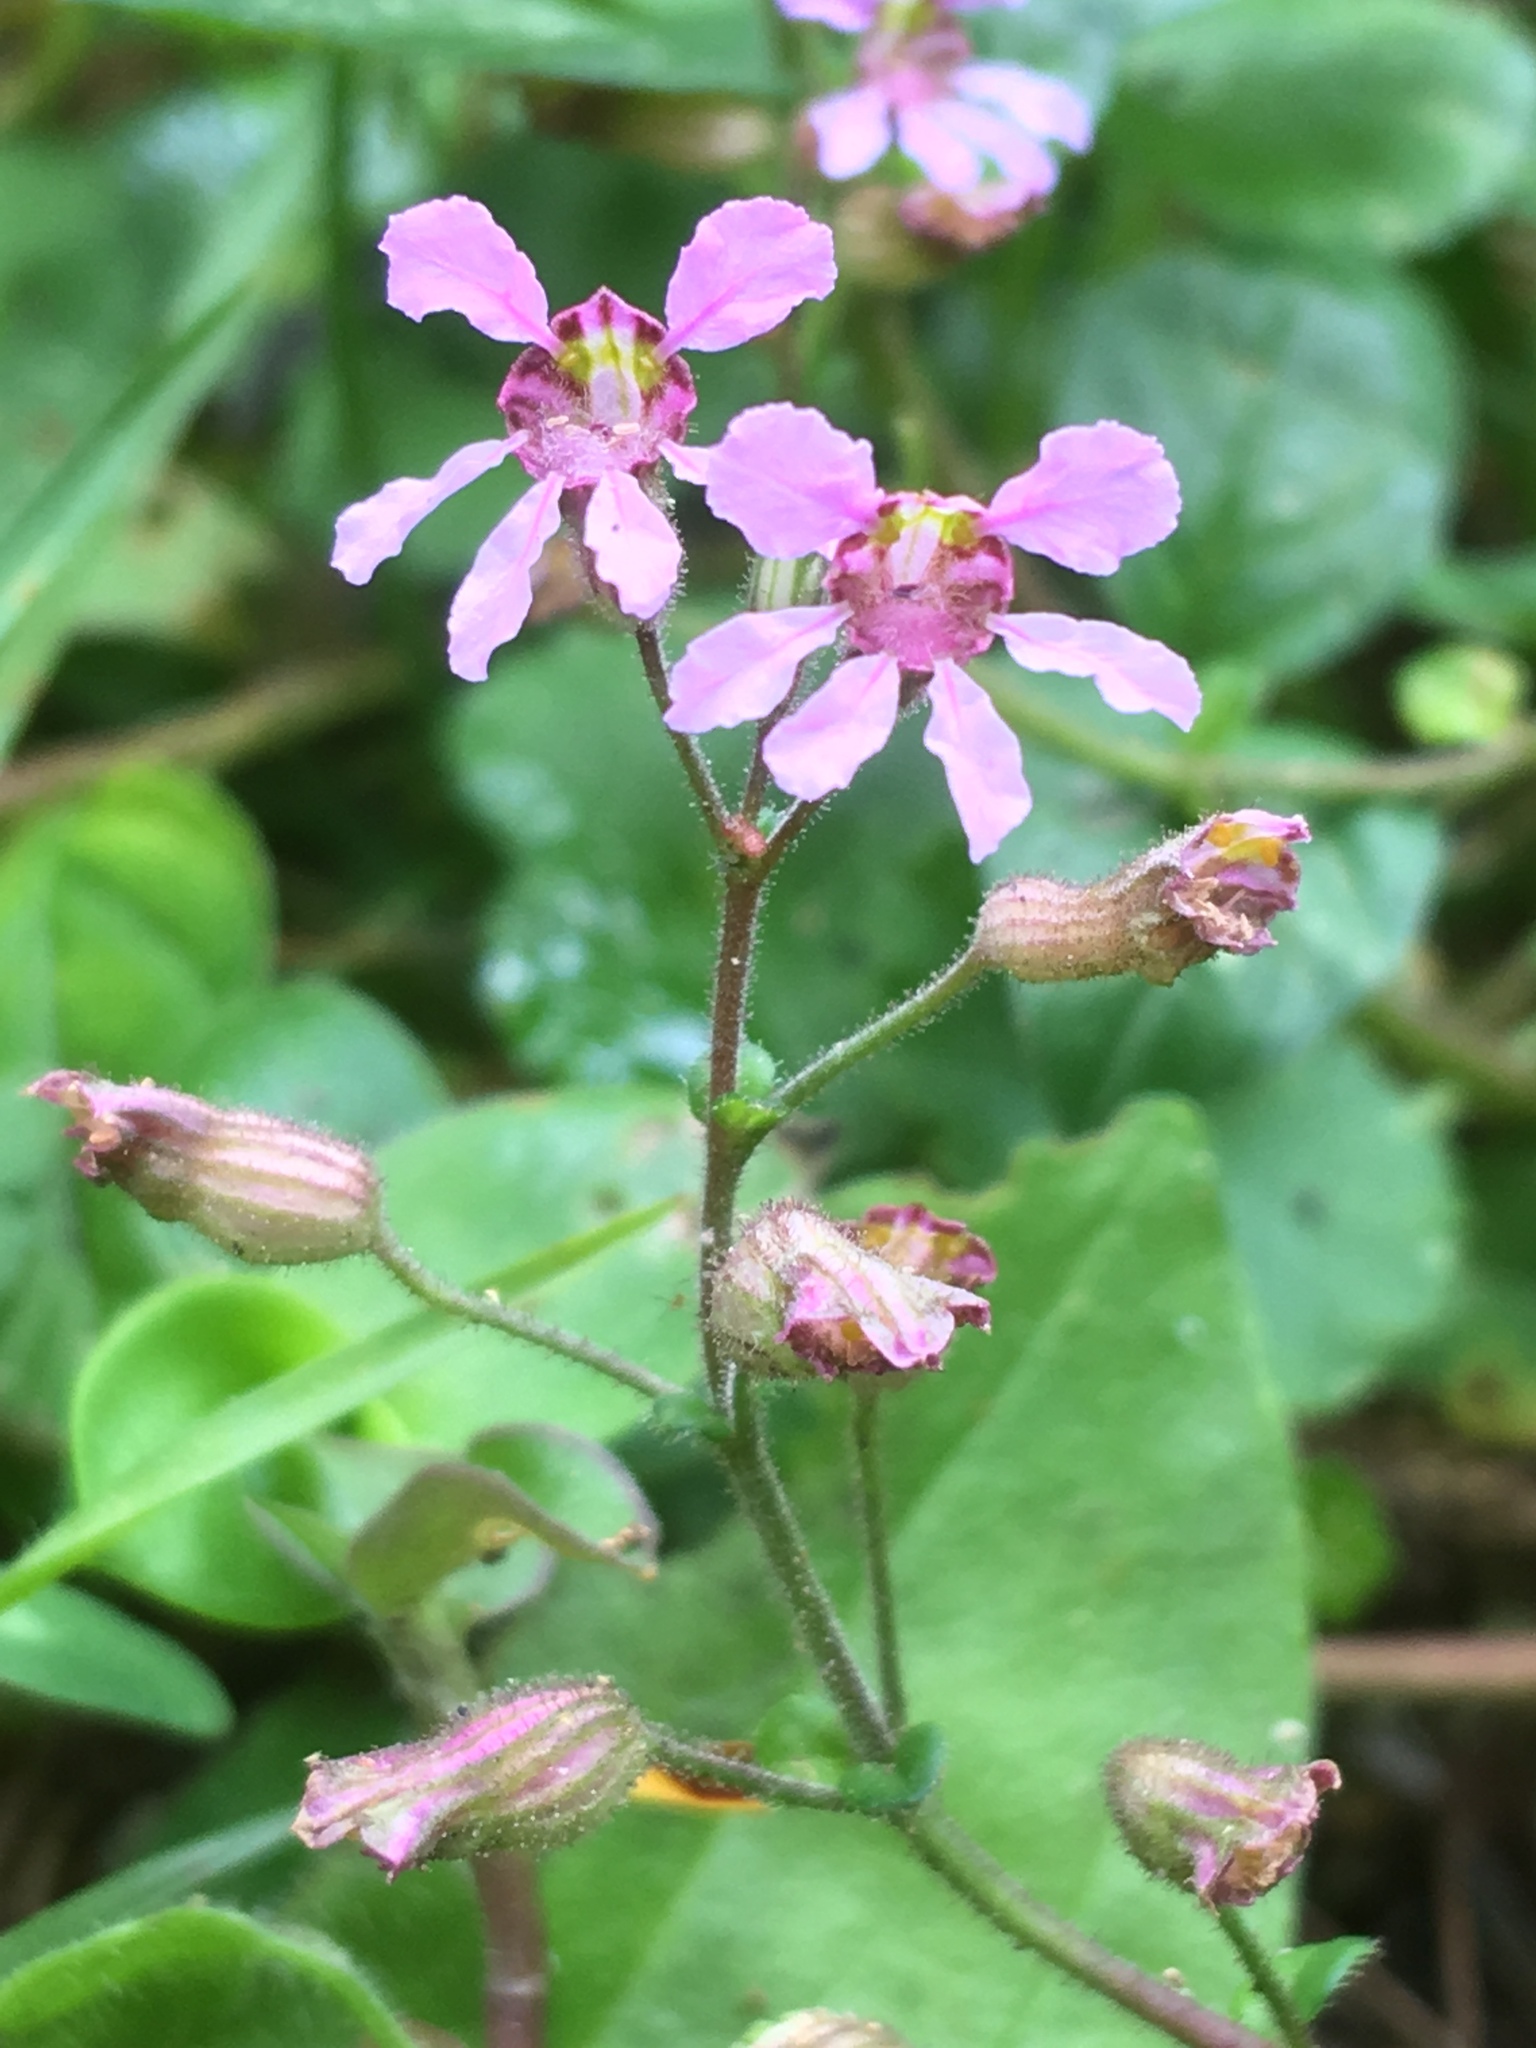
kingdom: Plantae
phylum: Tracheophyta
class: Magnoliopsida
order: Myrtales
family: Lythraceae
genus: Cuphea
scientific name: Cuphea racemosa
